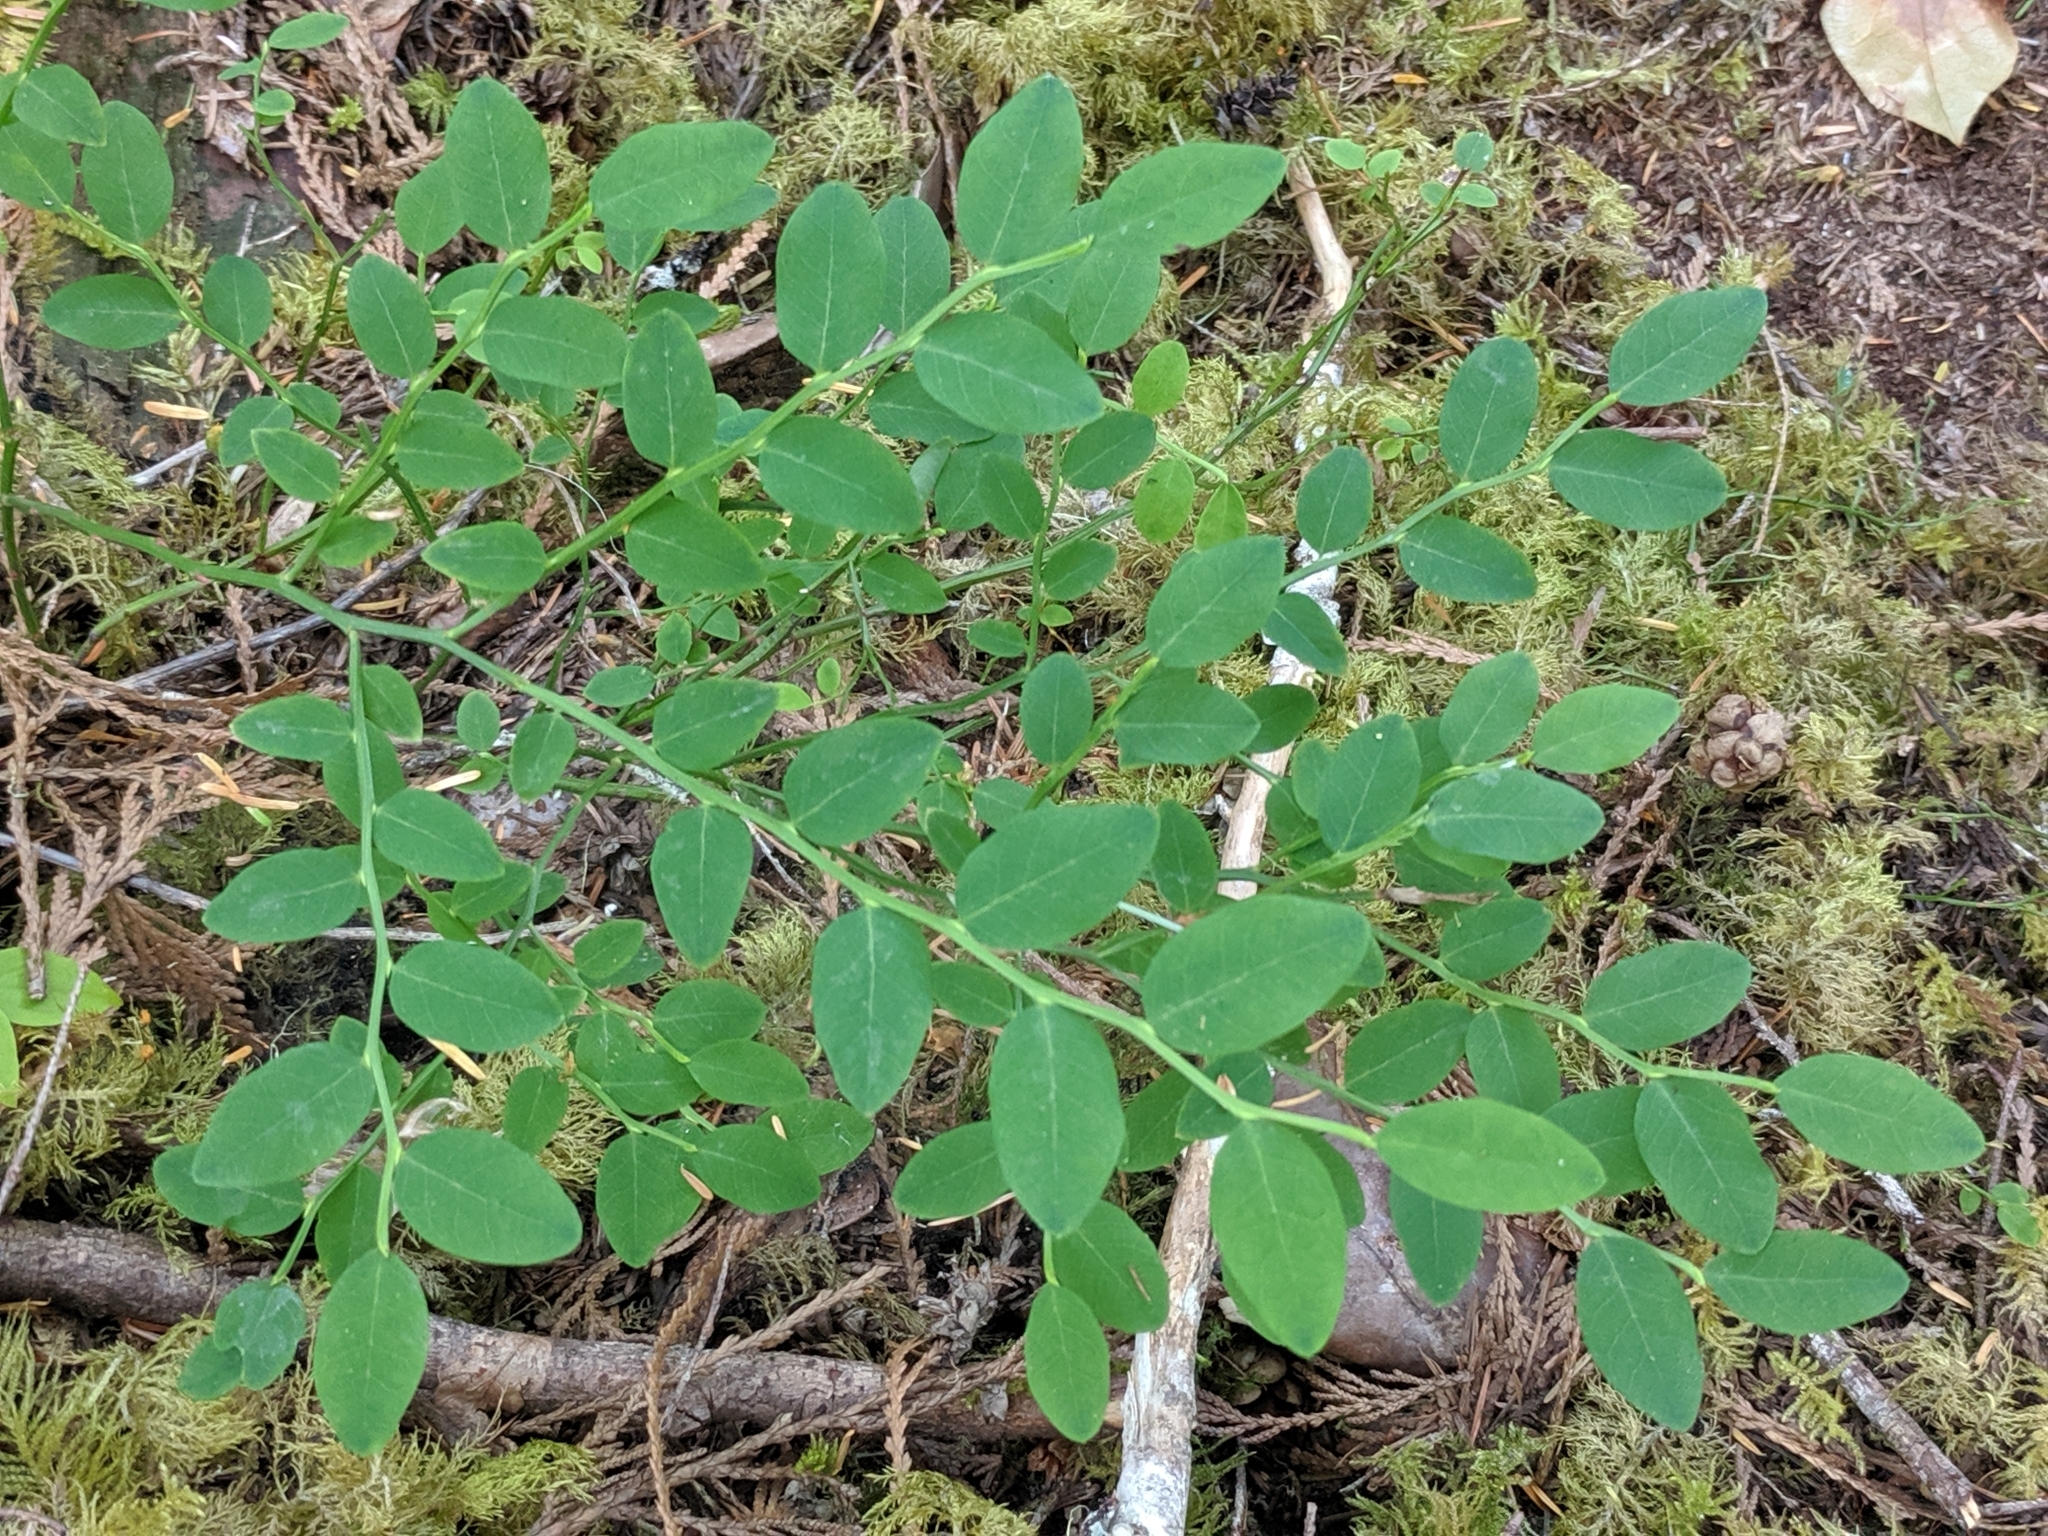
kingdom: Plantae
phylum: Tracheophyta
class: Magnoliopsida
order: Ericales
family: Ericaceae
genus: Vaccinium
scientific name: Vaccinium parvifolium
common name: Red-huckleberry
